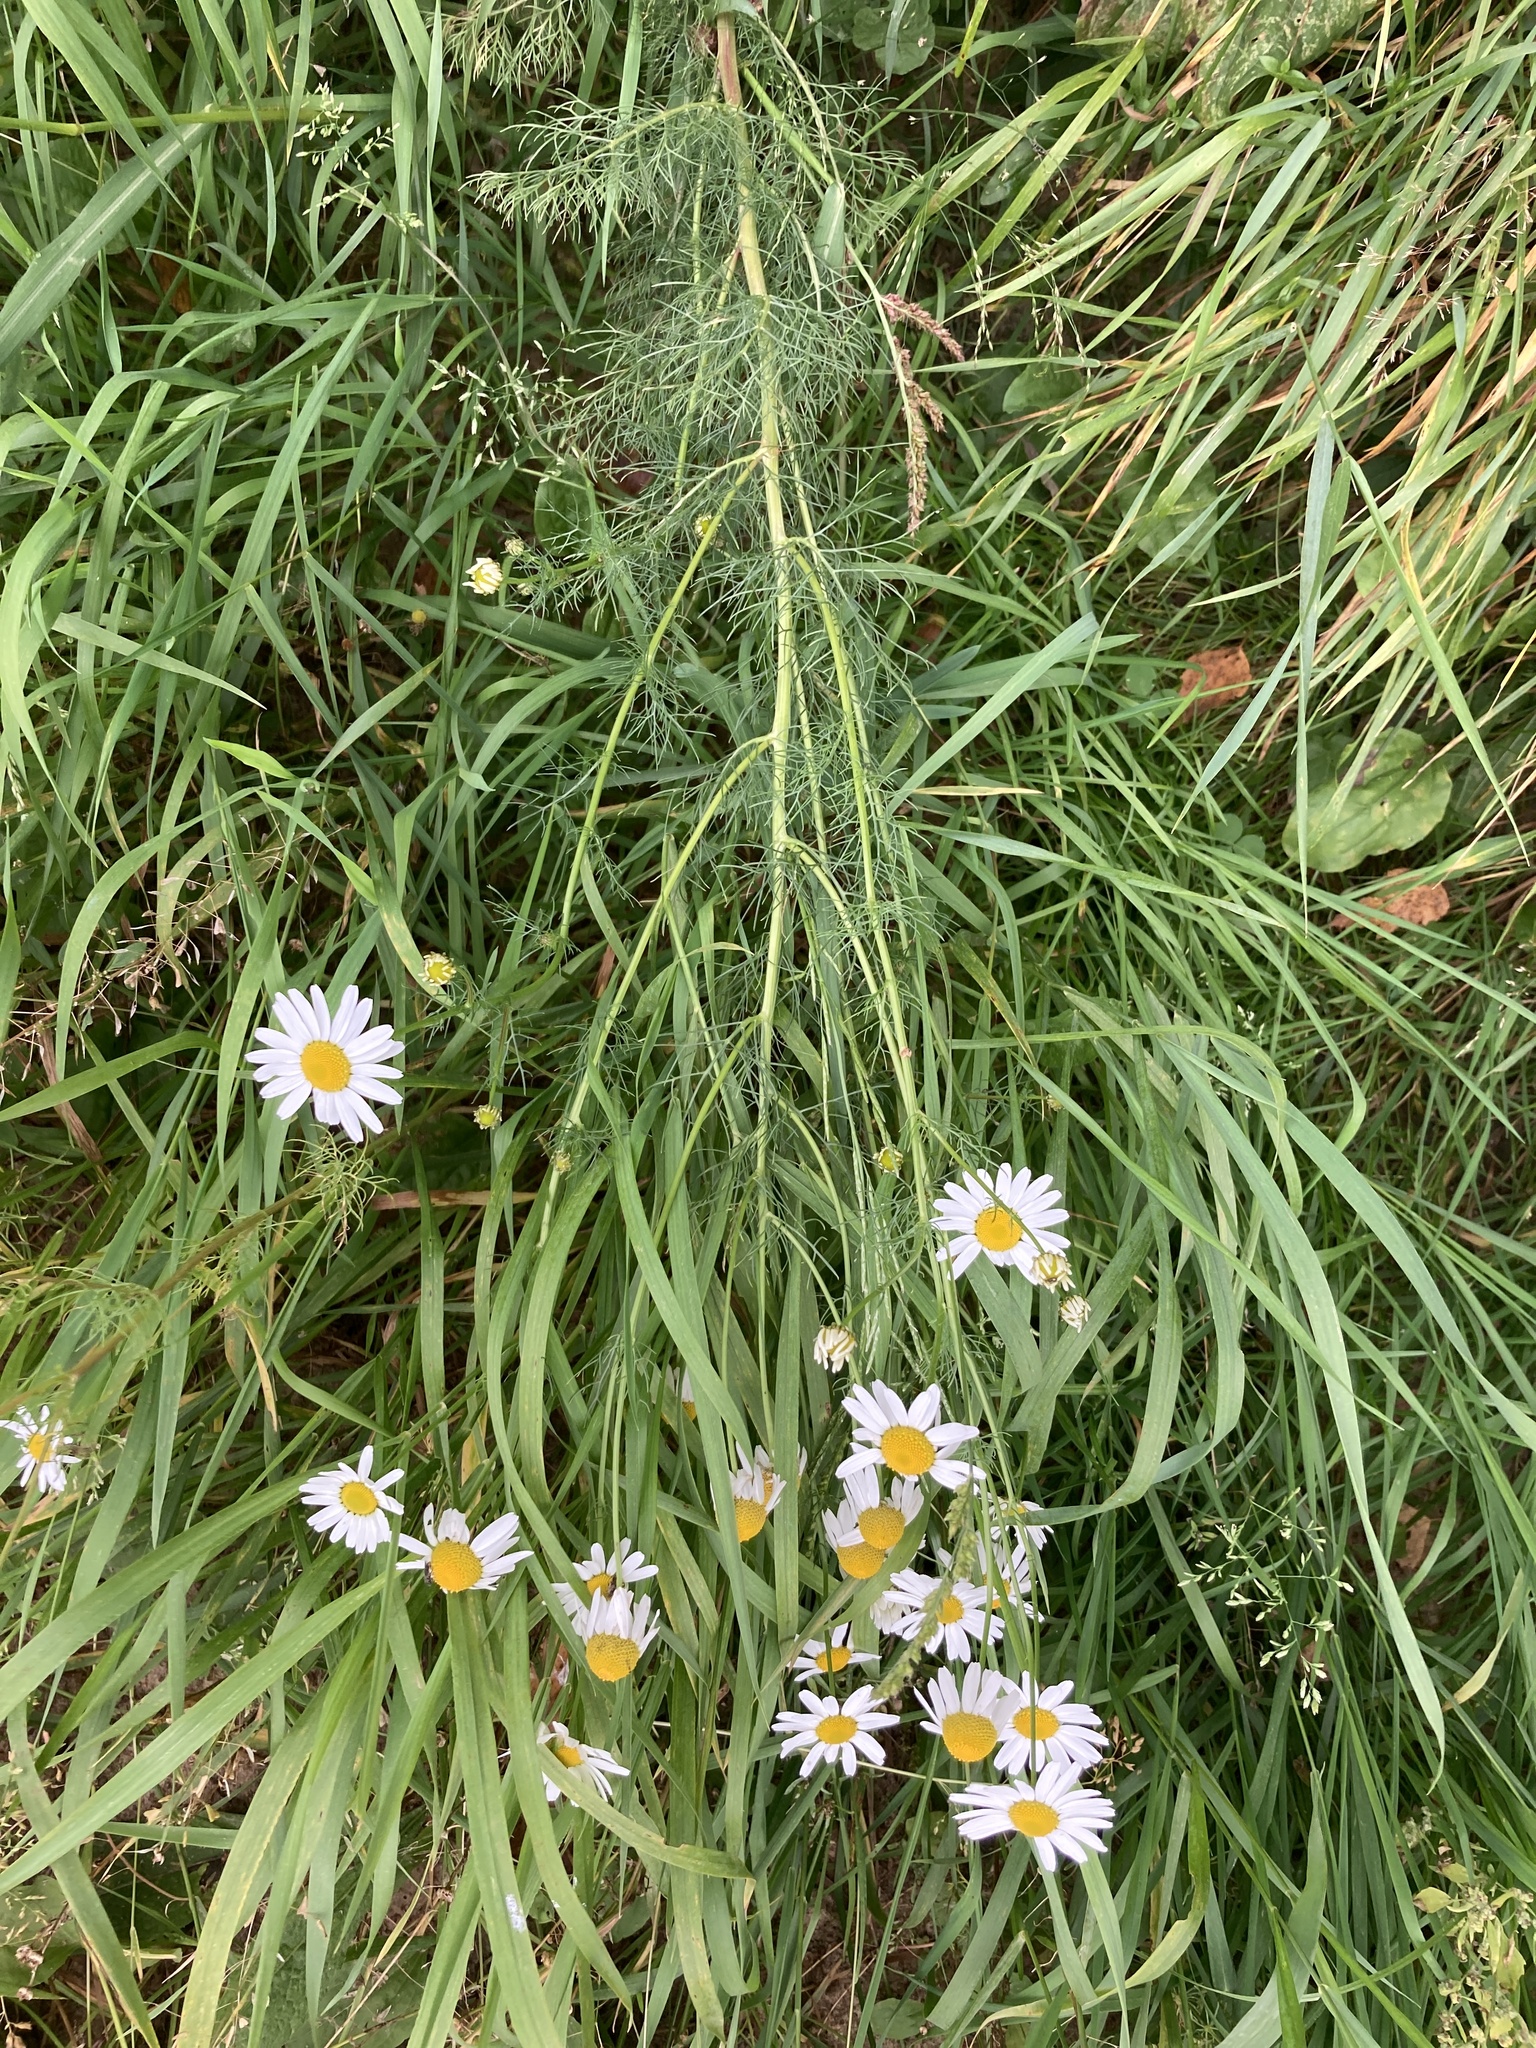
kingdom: Plantae
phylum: Tracheophyta
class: Magnoliopsida
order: Asterales
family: Asteraceae
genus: Tripleurospermum
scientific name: Tripleurospermum inodorum
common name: Scentless mayweed
